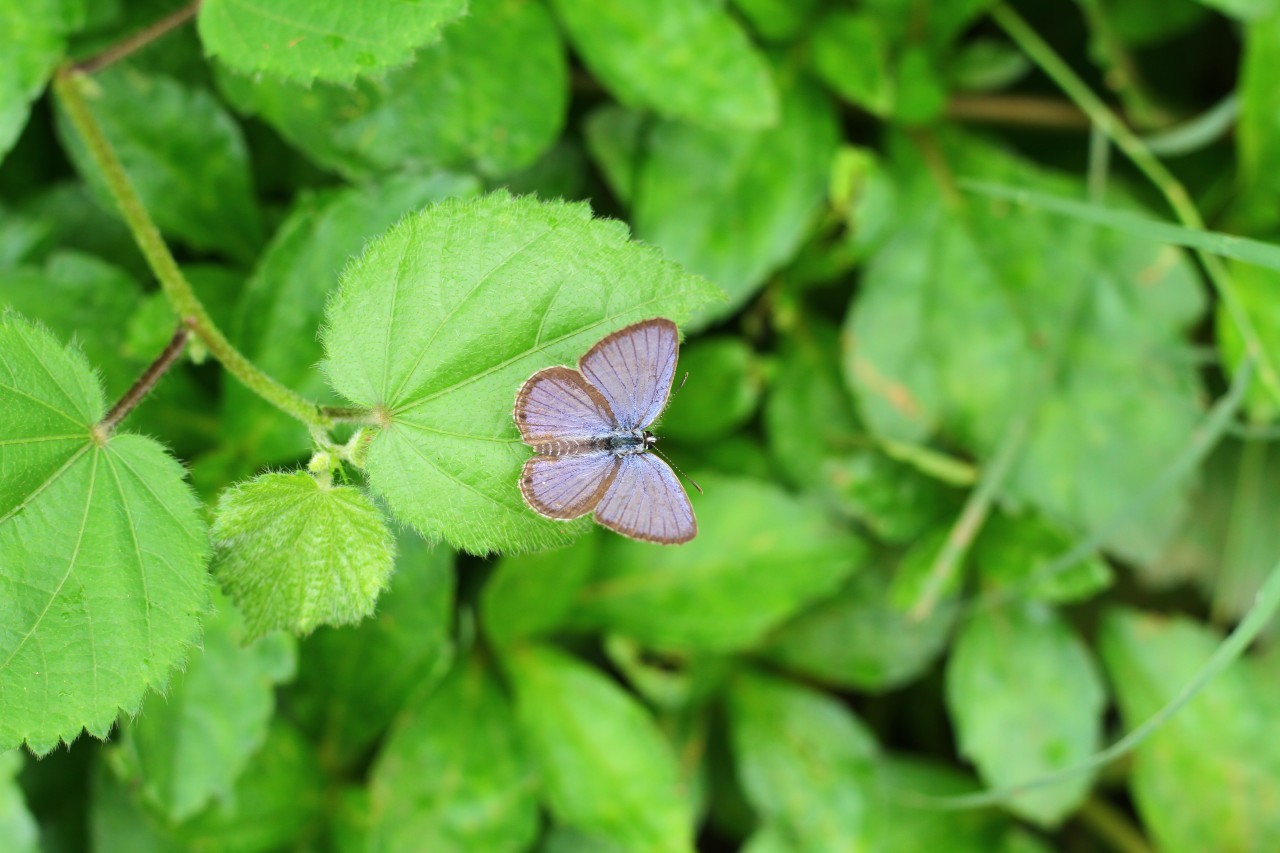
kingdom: Animalia
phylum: Arthropoda
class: Insecta
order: Lepidoptera
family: Lycaenidae
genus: Luthrodes
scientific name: Luthrodes pandava
